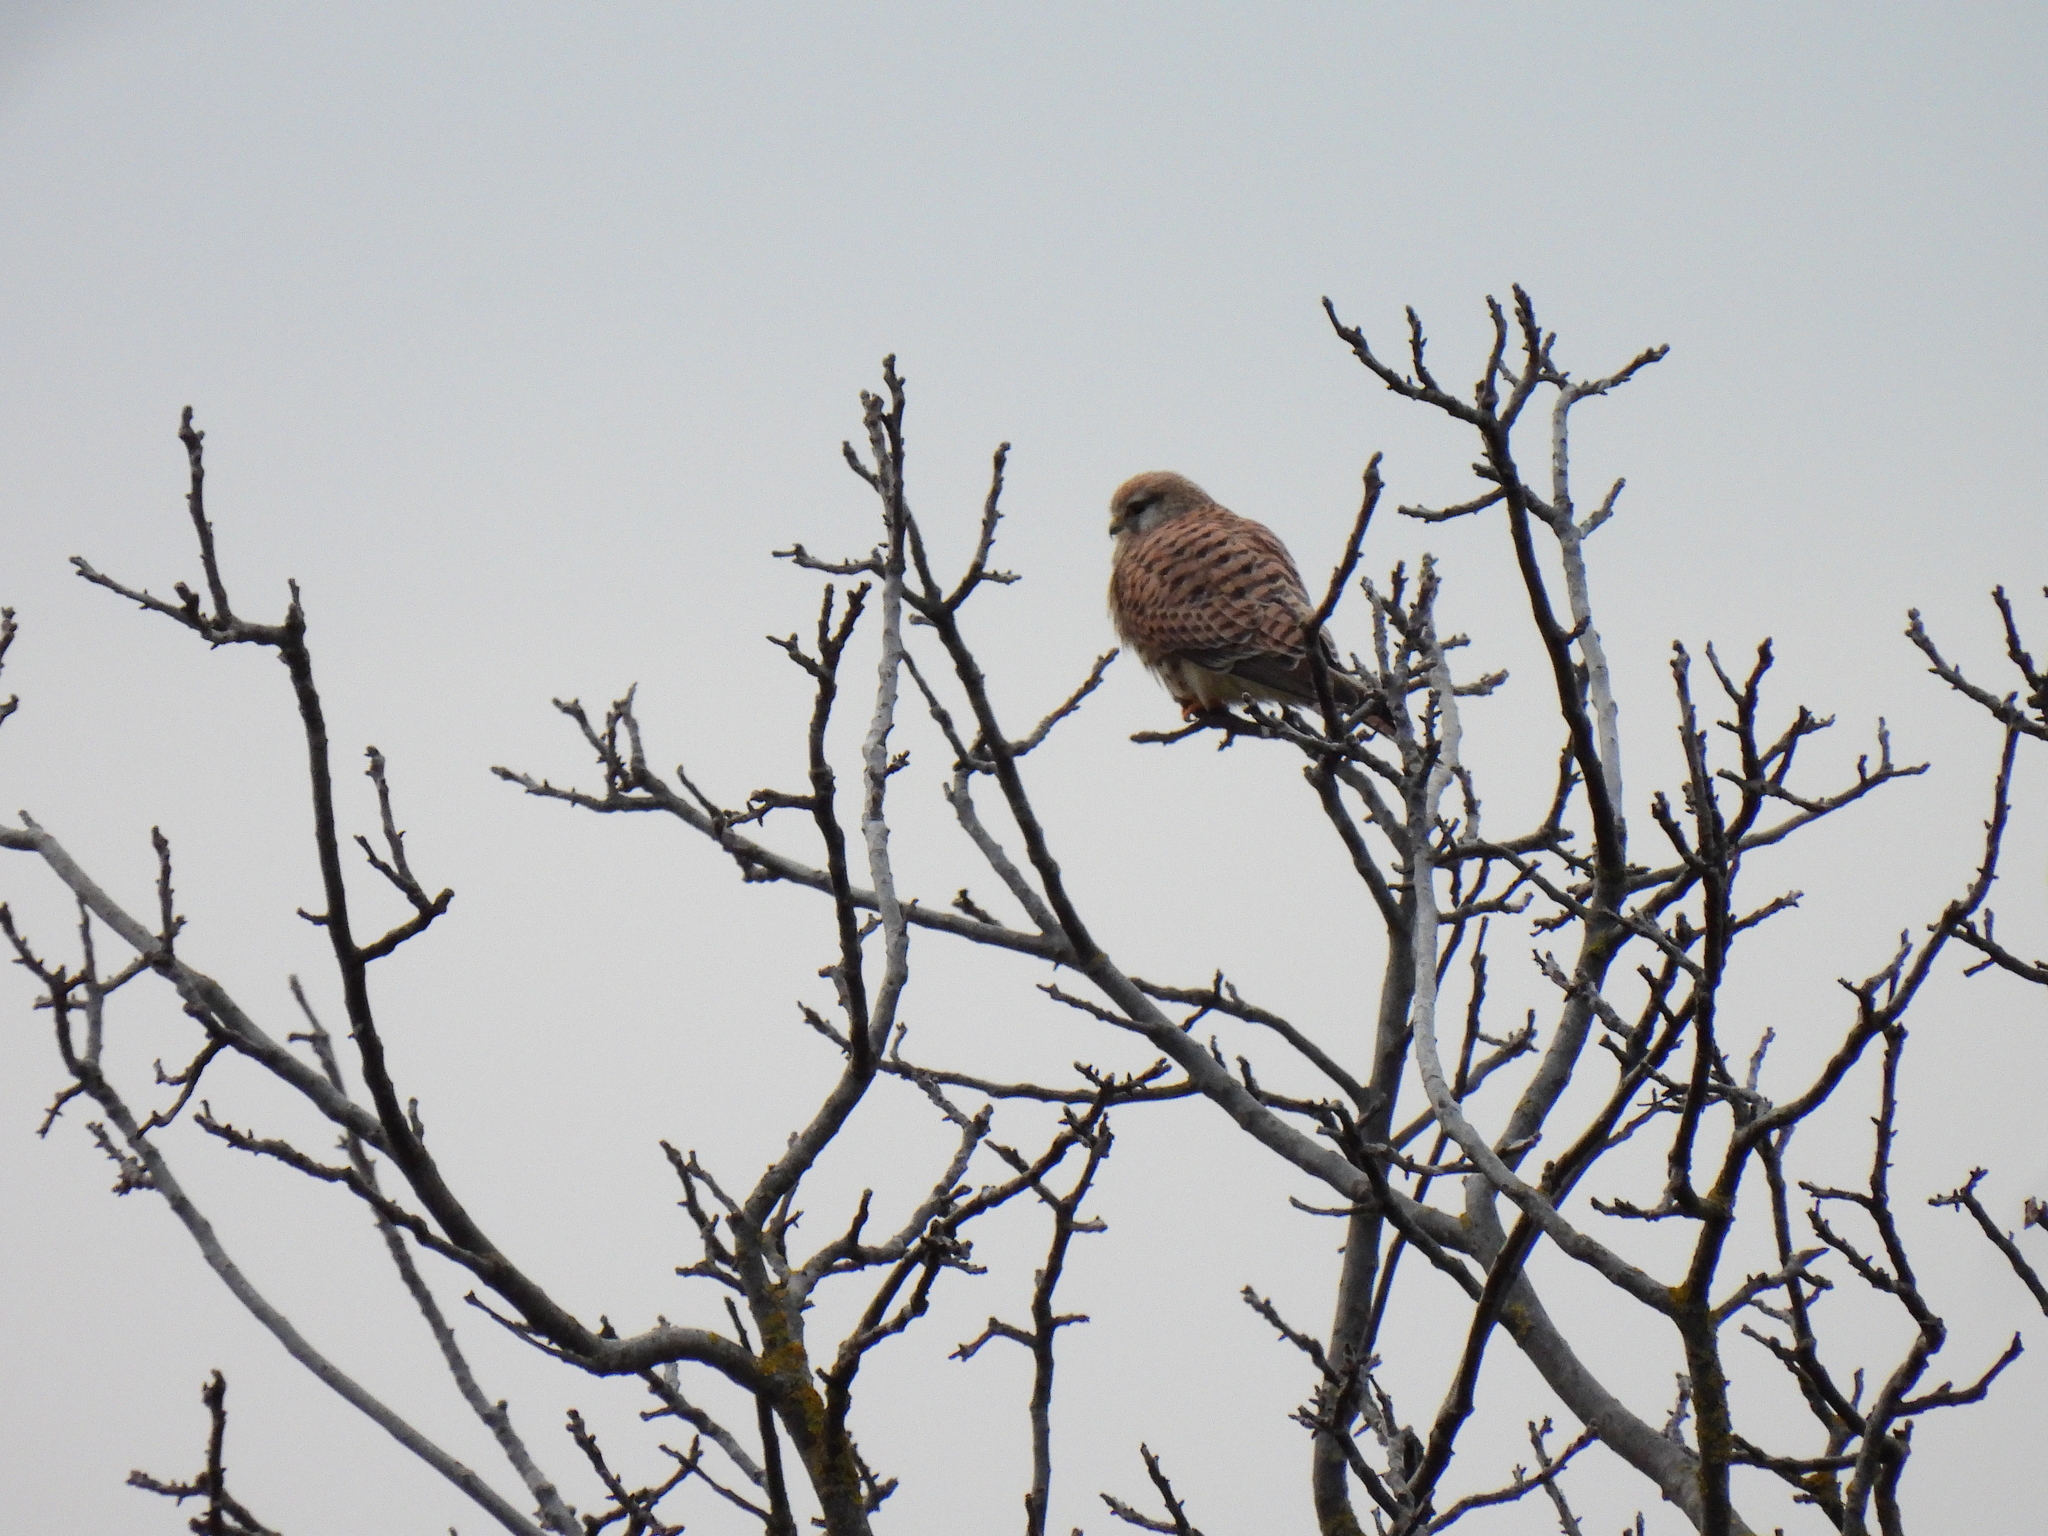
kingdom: Animalia
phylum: Chordata
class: Aves
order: Falconiformes
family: Falconidae
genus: Falco
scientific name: Falco tinnunculus
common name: Common kestrel
